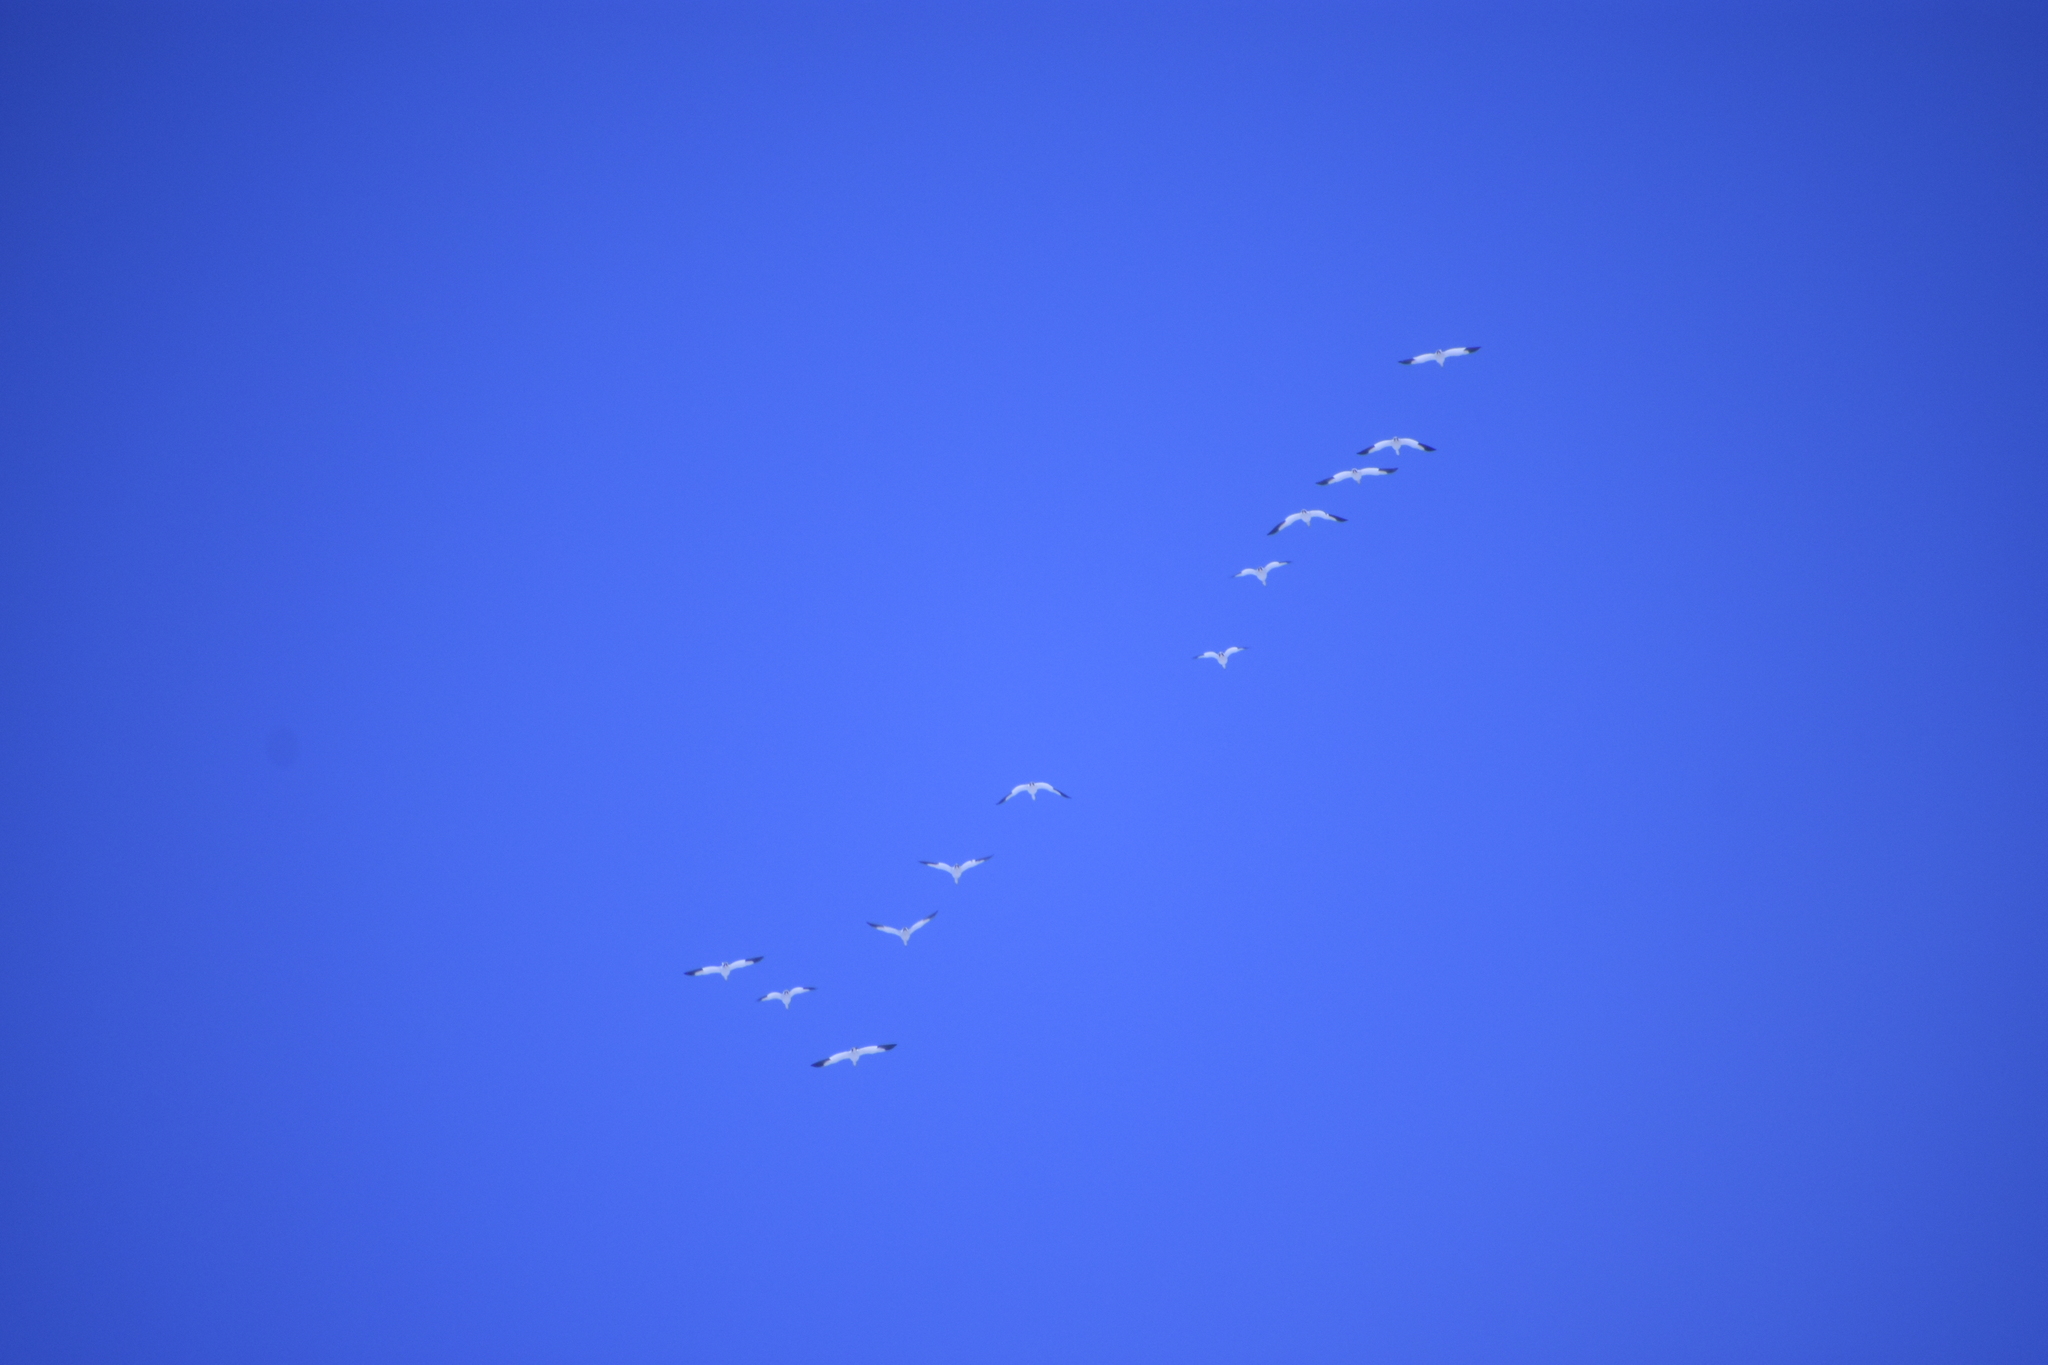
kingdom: Animalia
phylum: Chordata
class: Aves
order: Anseriformes
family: Anatidae
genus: Anser
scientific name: Anser caerulescens
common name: Snow goose
